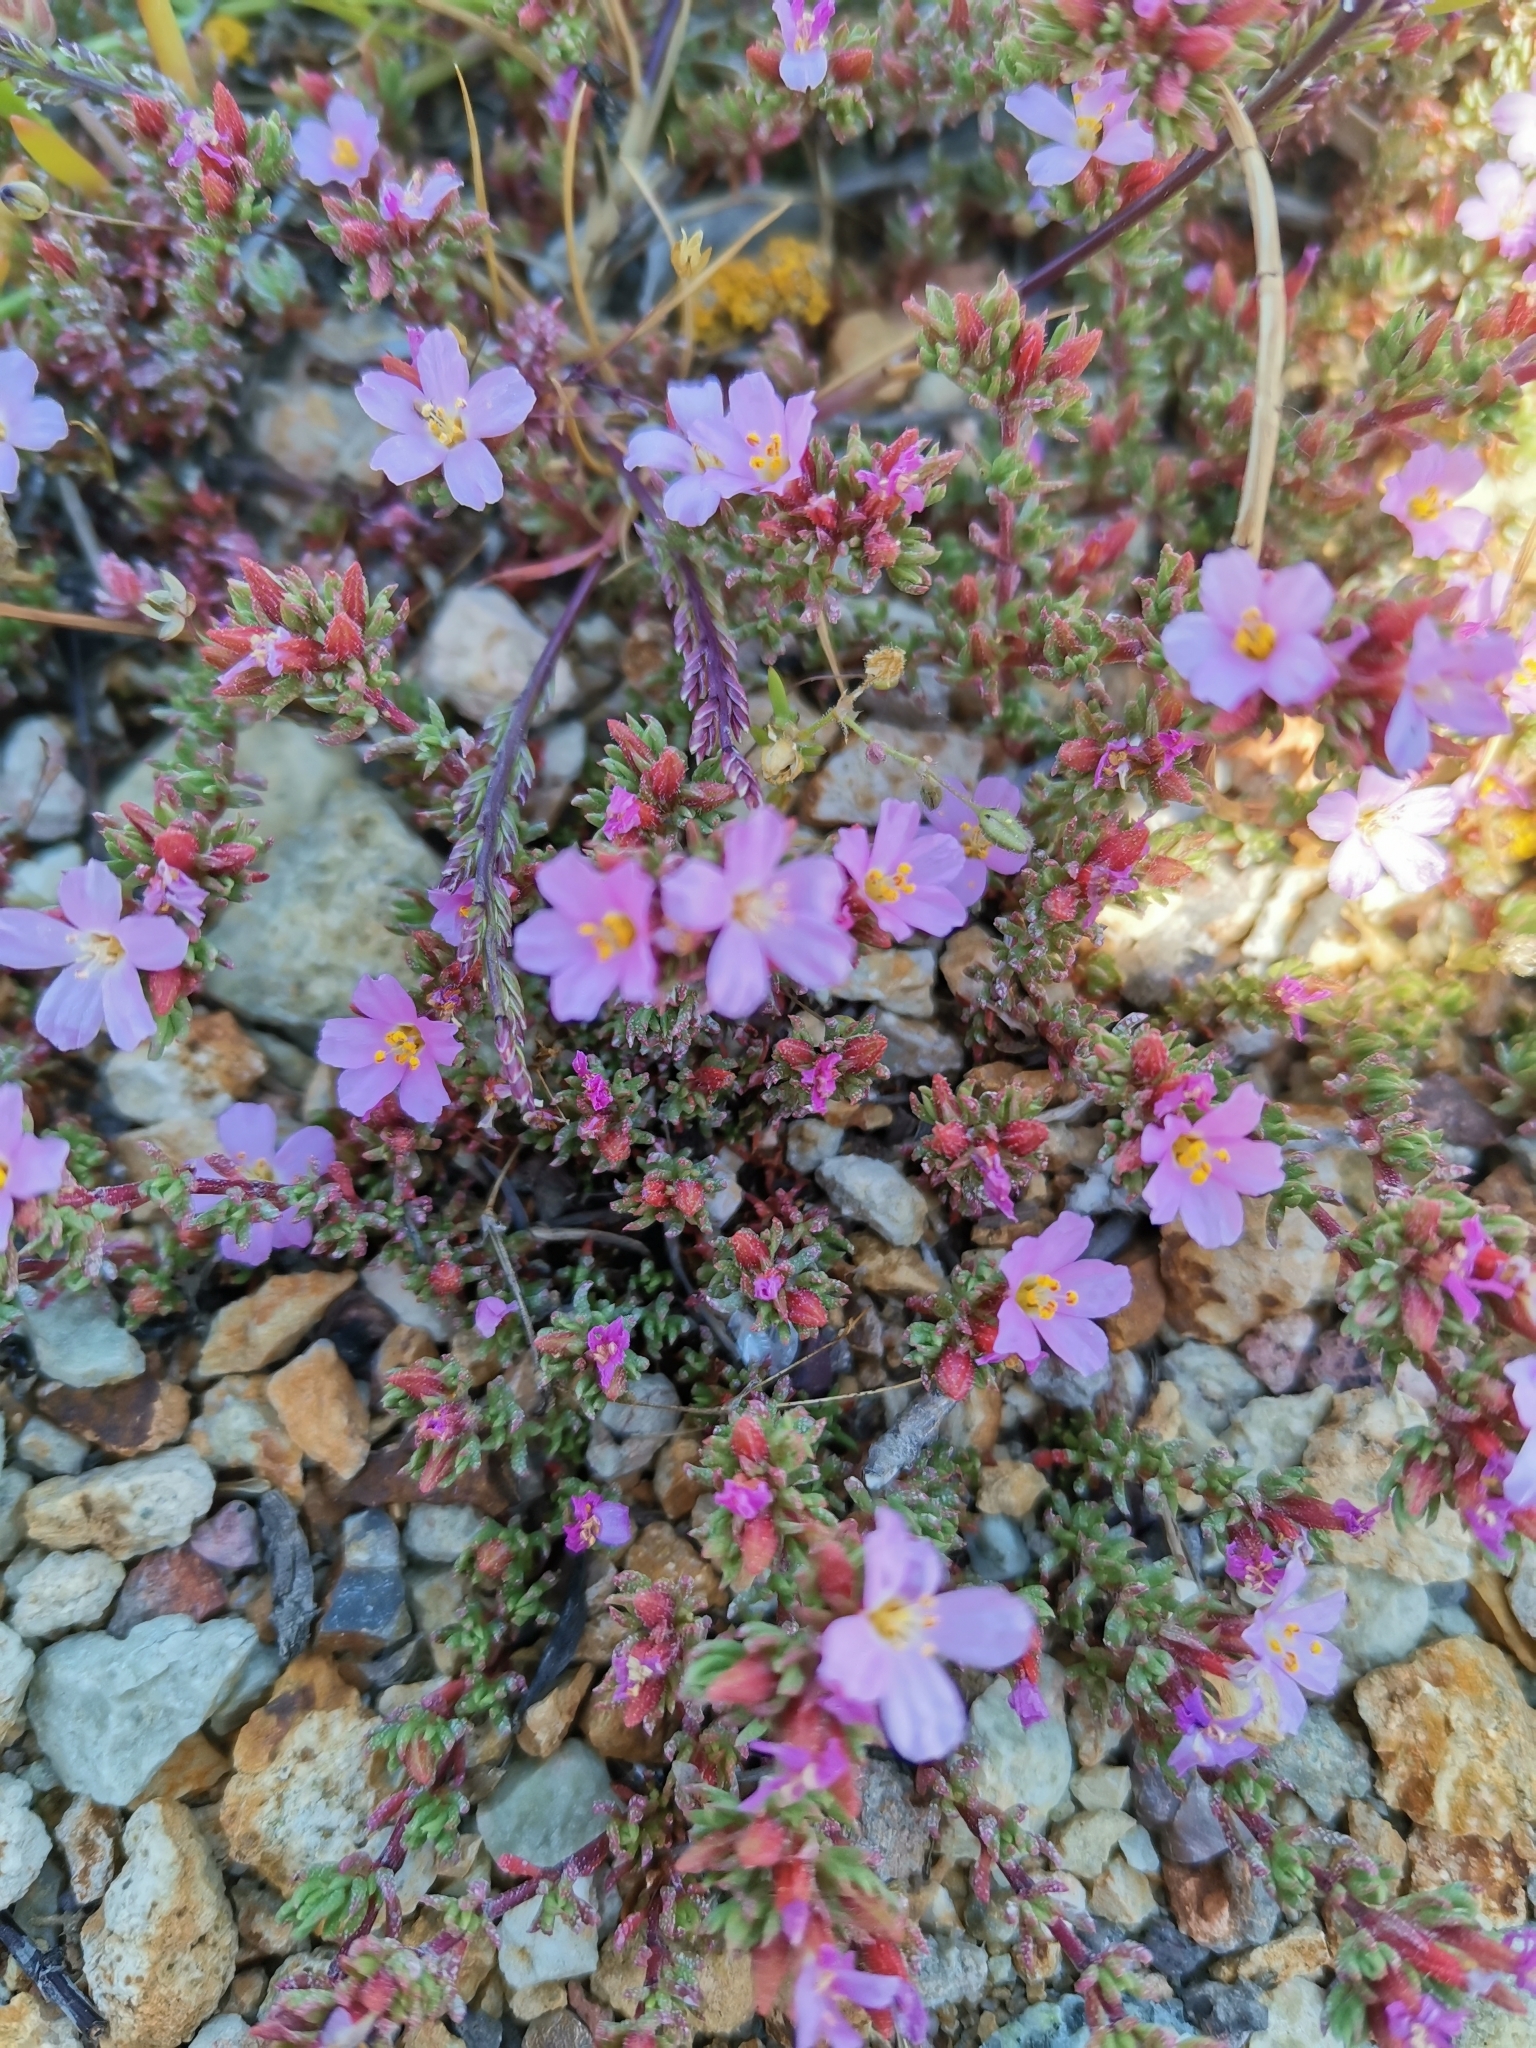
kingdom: Plantae
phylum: Tracheophyta
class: Magnoliopsida
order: Caryophyllales
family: Frankeniaceae
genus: Frankenia
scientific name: Frankenia laevis
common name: Sea-heath
